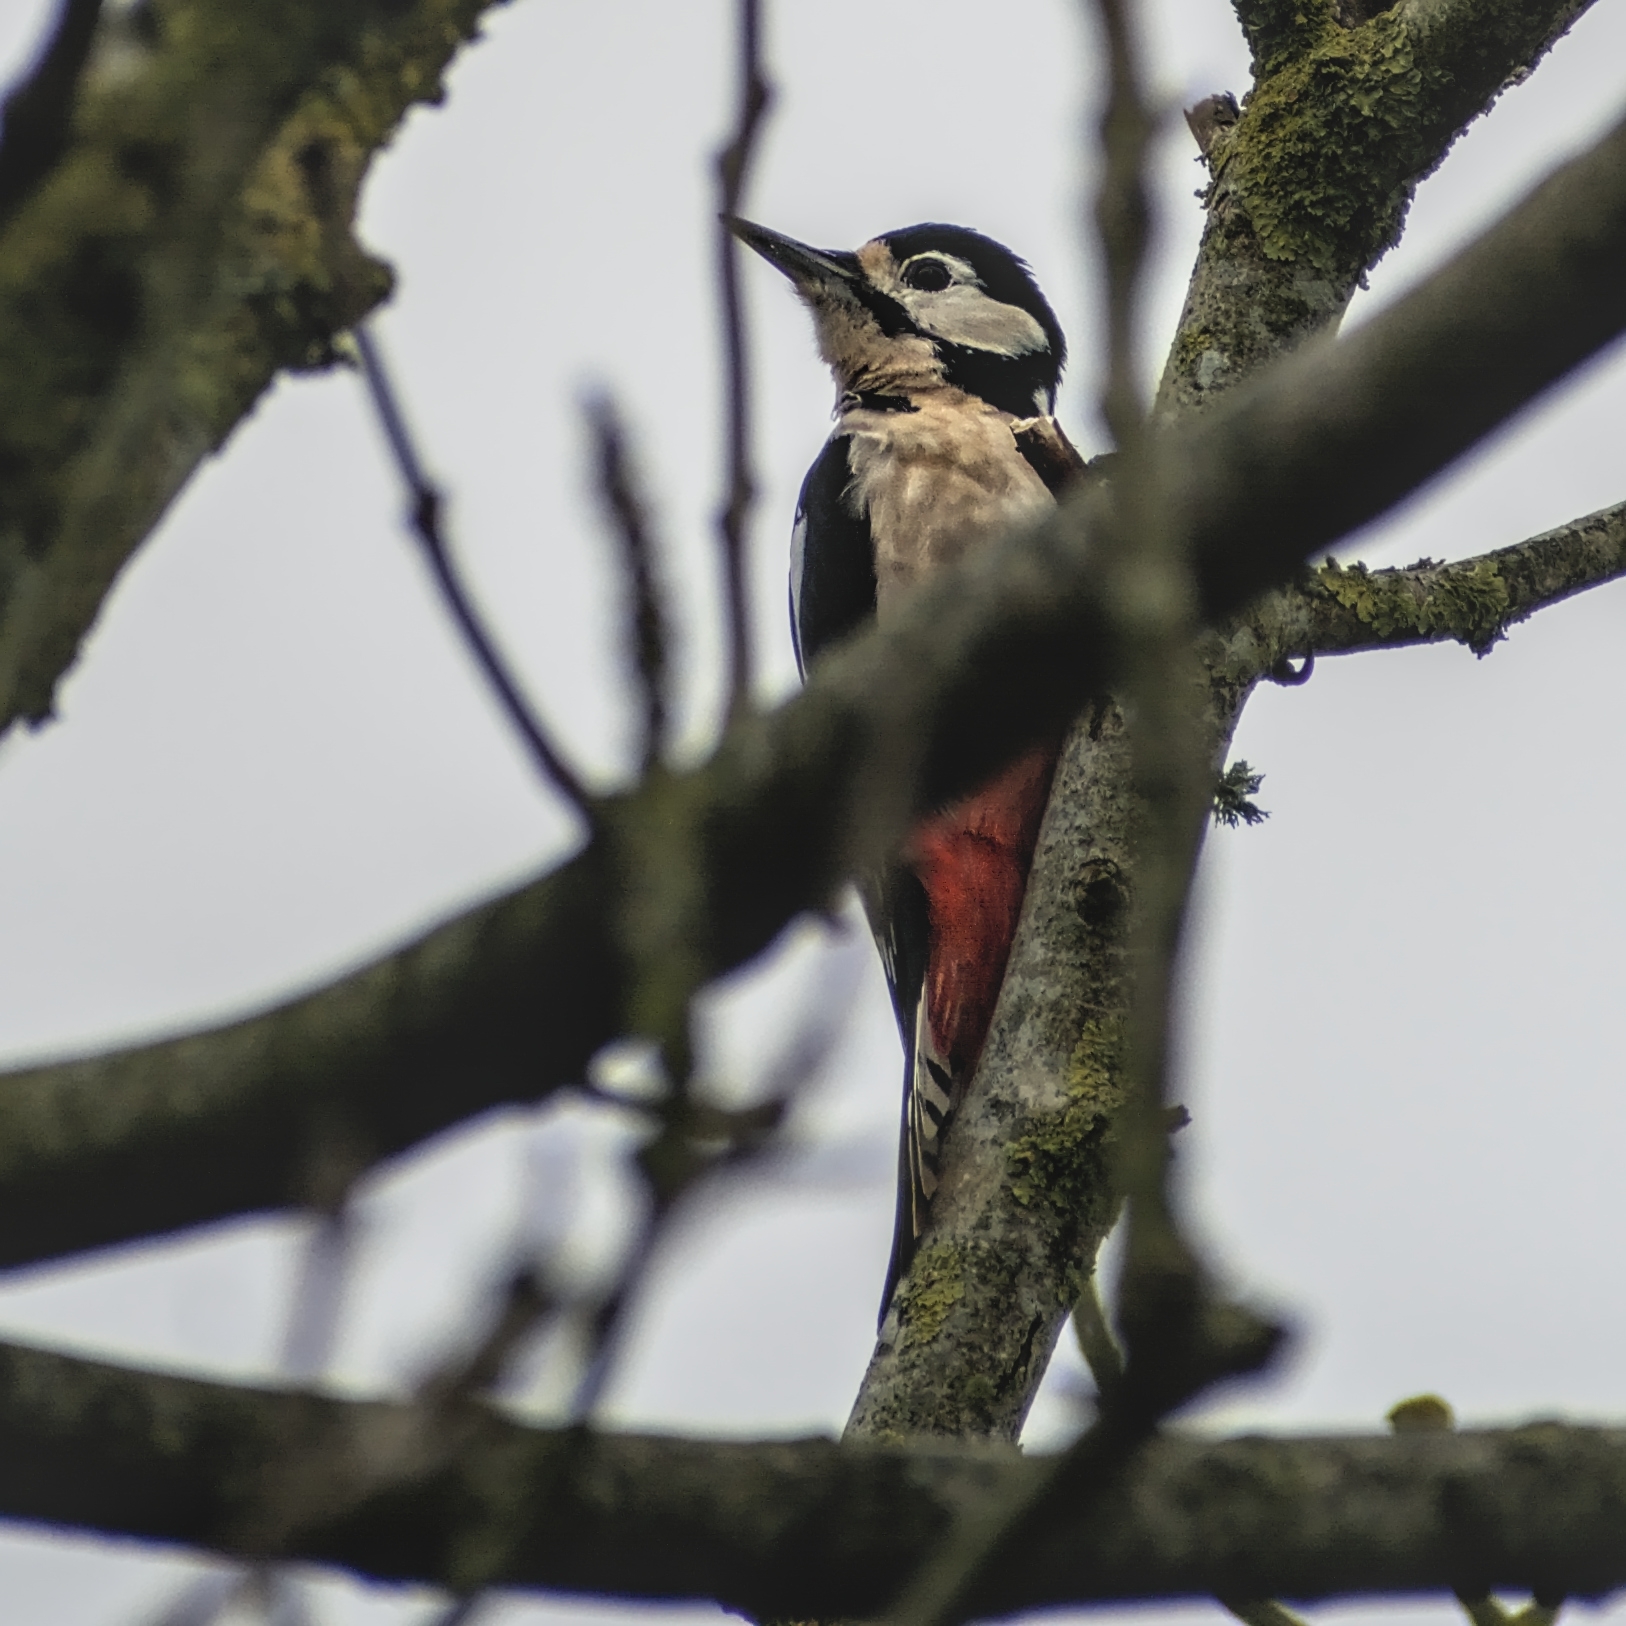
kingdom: Animalia
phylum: Chordata
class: Aves
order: Piciformes
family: Picidae
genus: Dendrocopos
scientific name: Dendrocopos major
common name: Great spotted woodpecker
